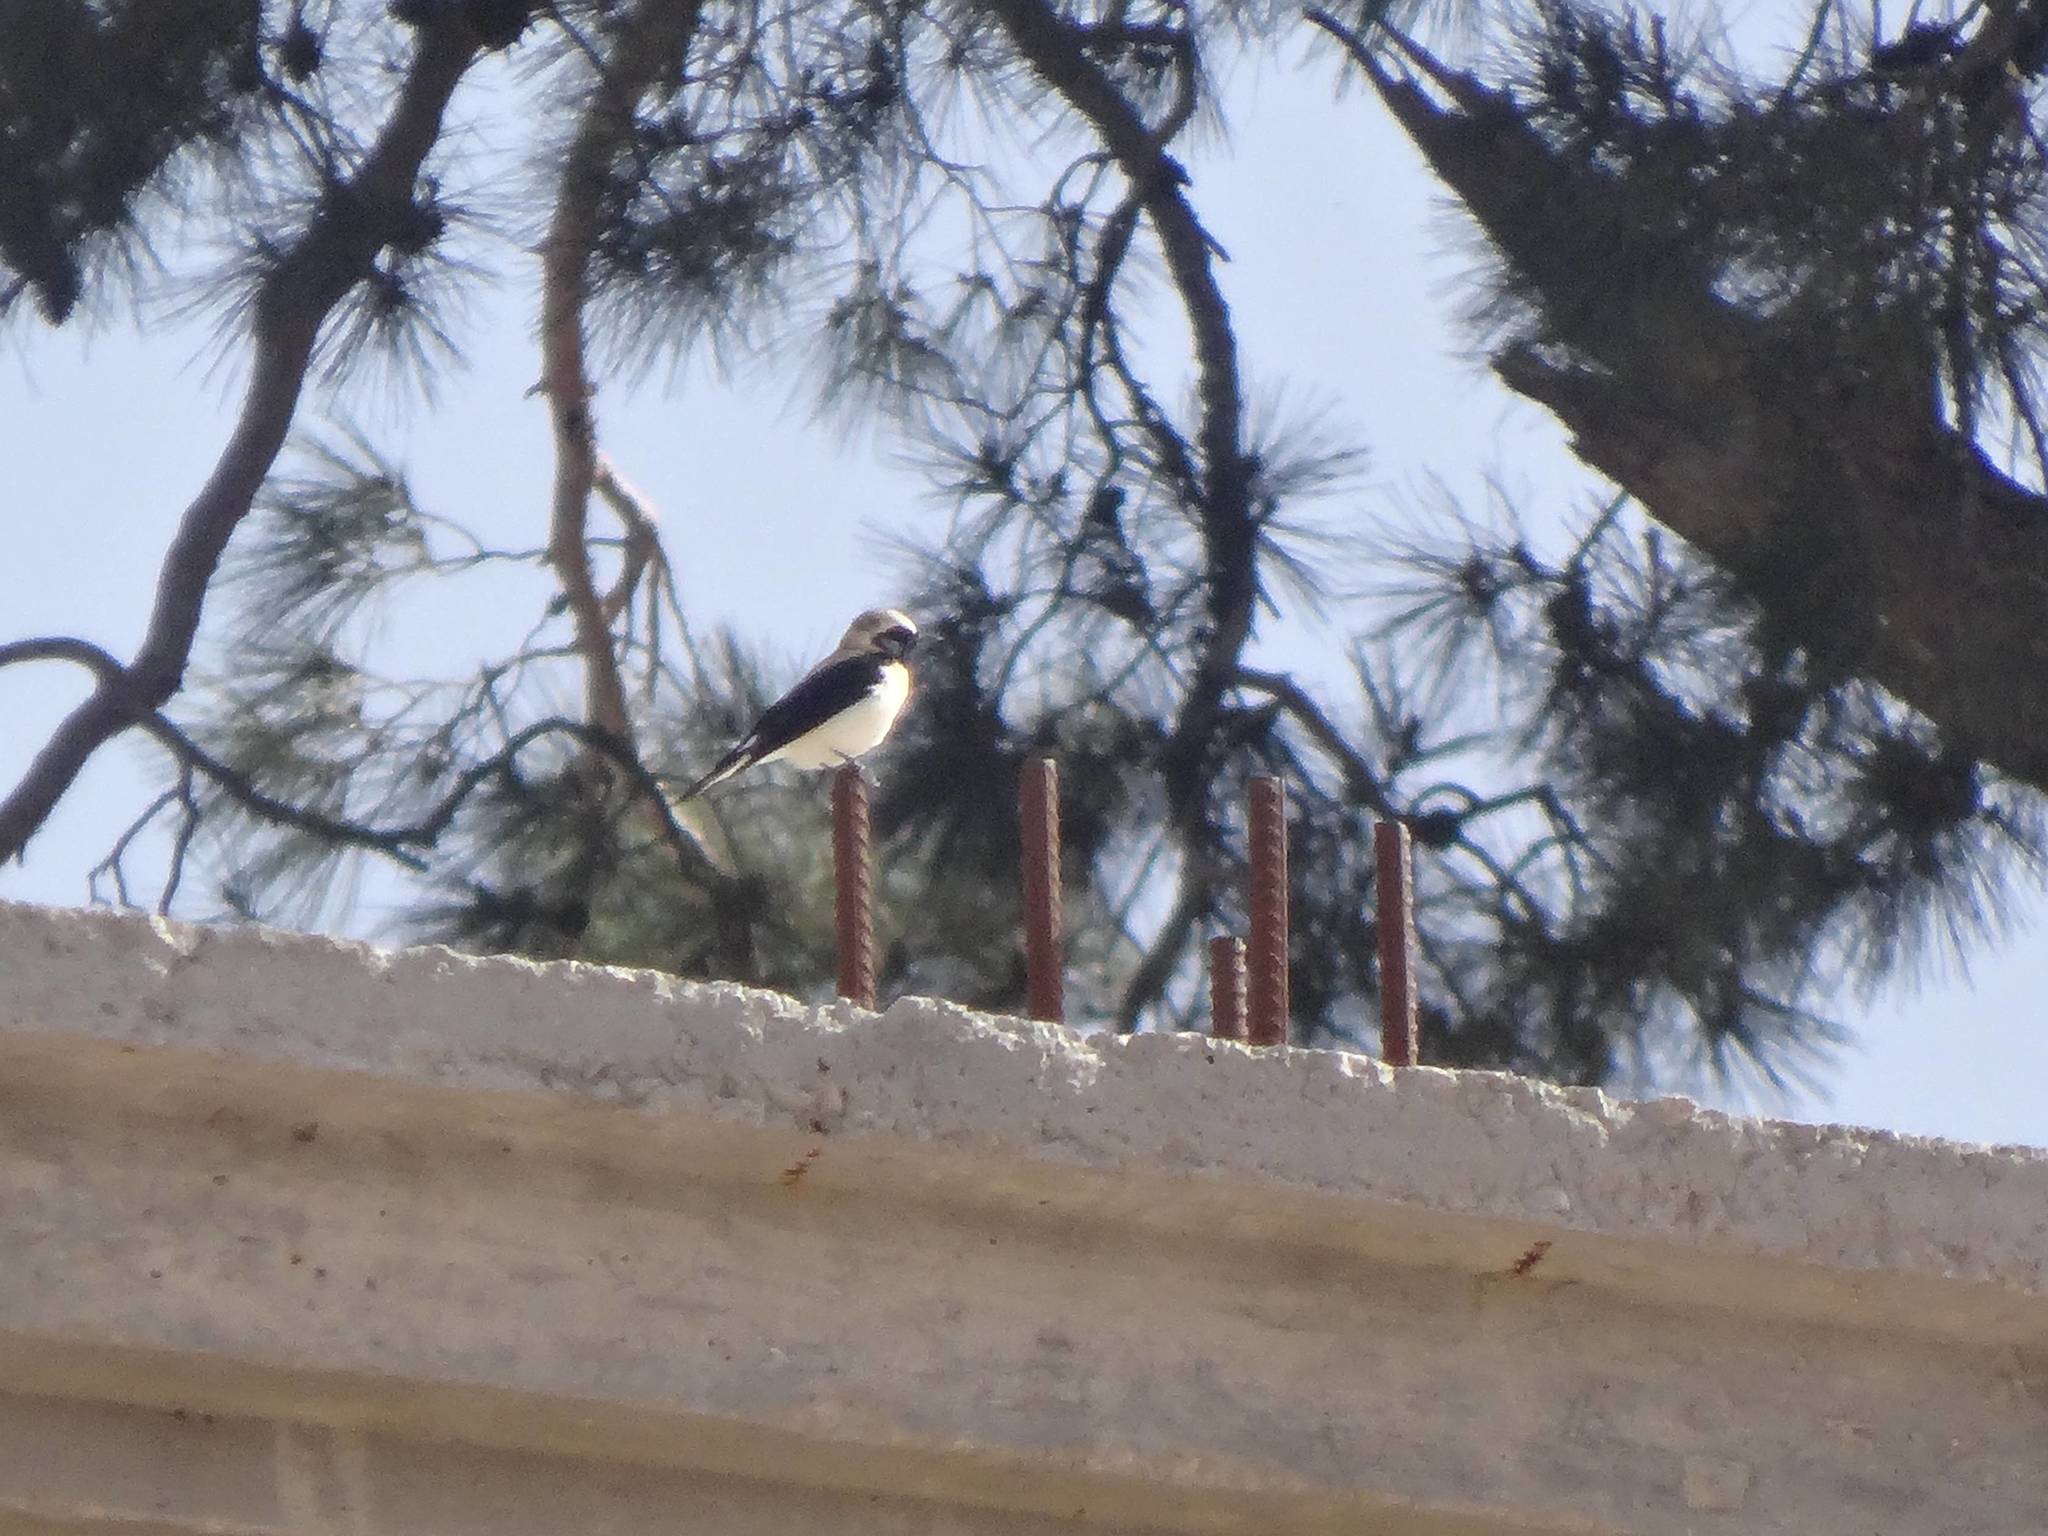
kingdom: Animalia
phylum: Chordata
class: Aves
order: Passeriformes
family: Muscicapidae
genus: Oenanthe
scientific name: Oenanthe hispanica
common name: Black-eared wheatear
